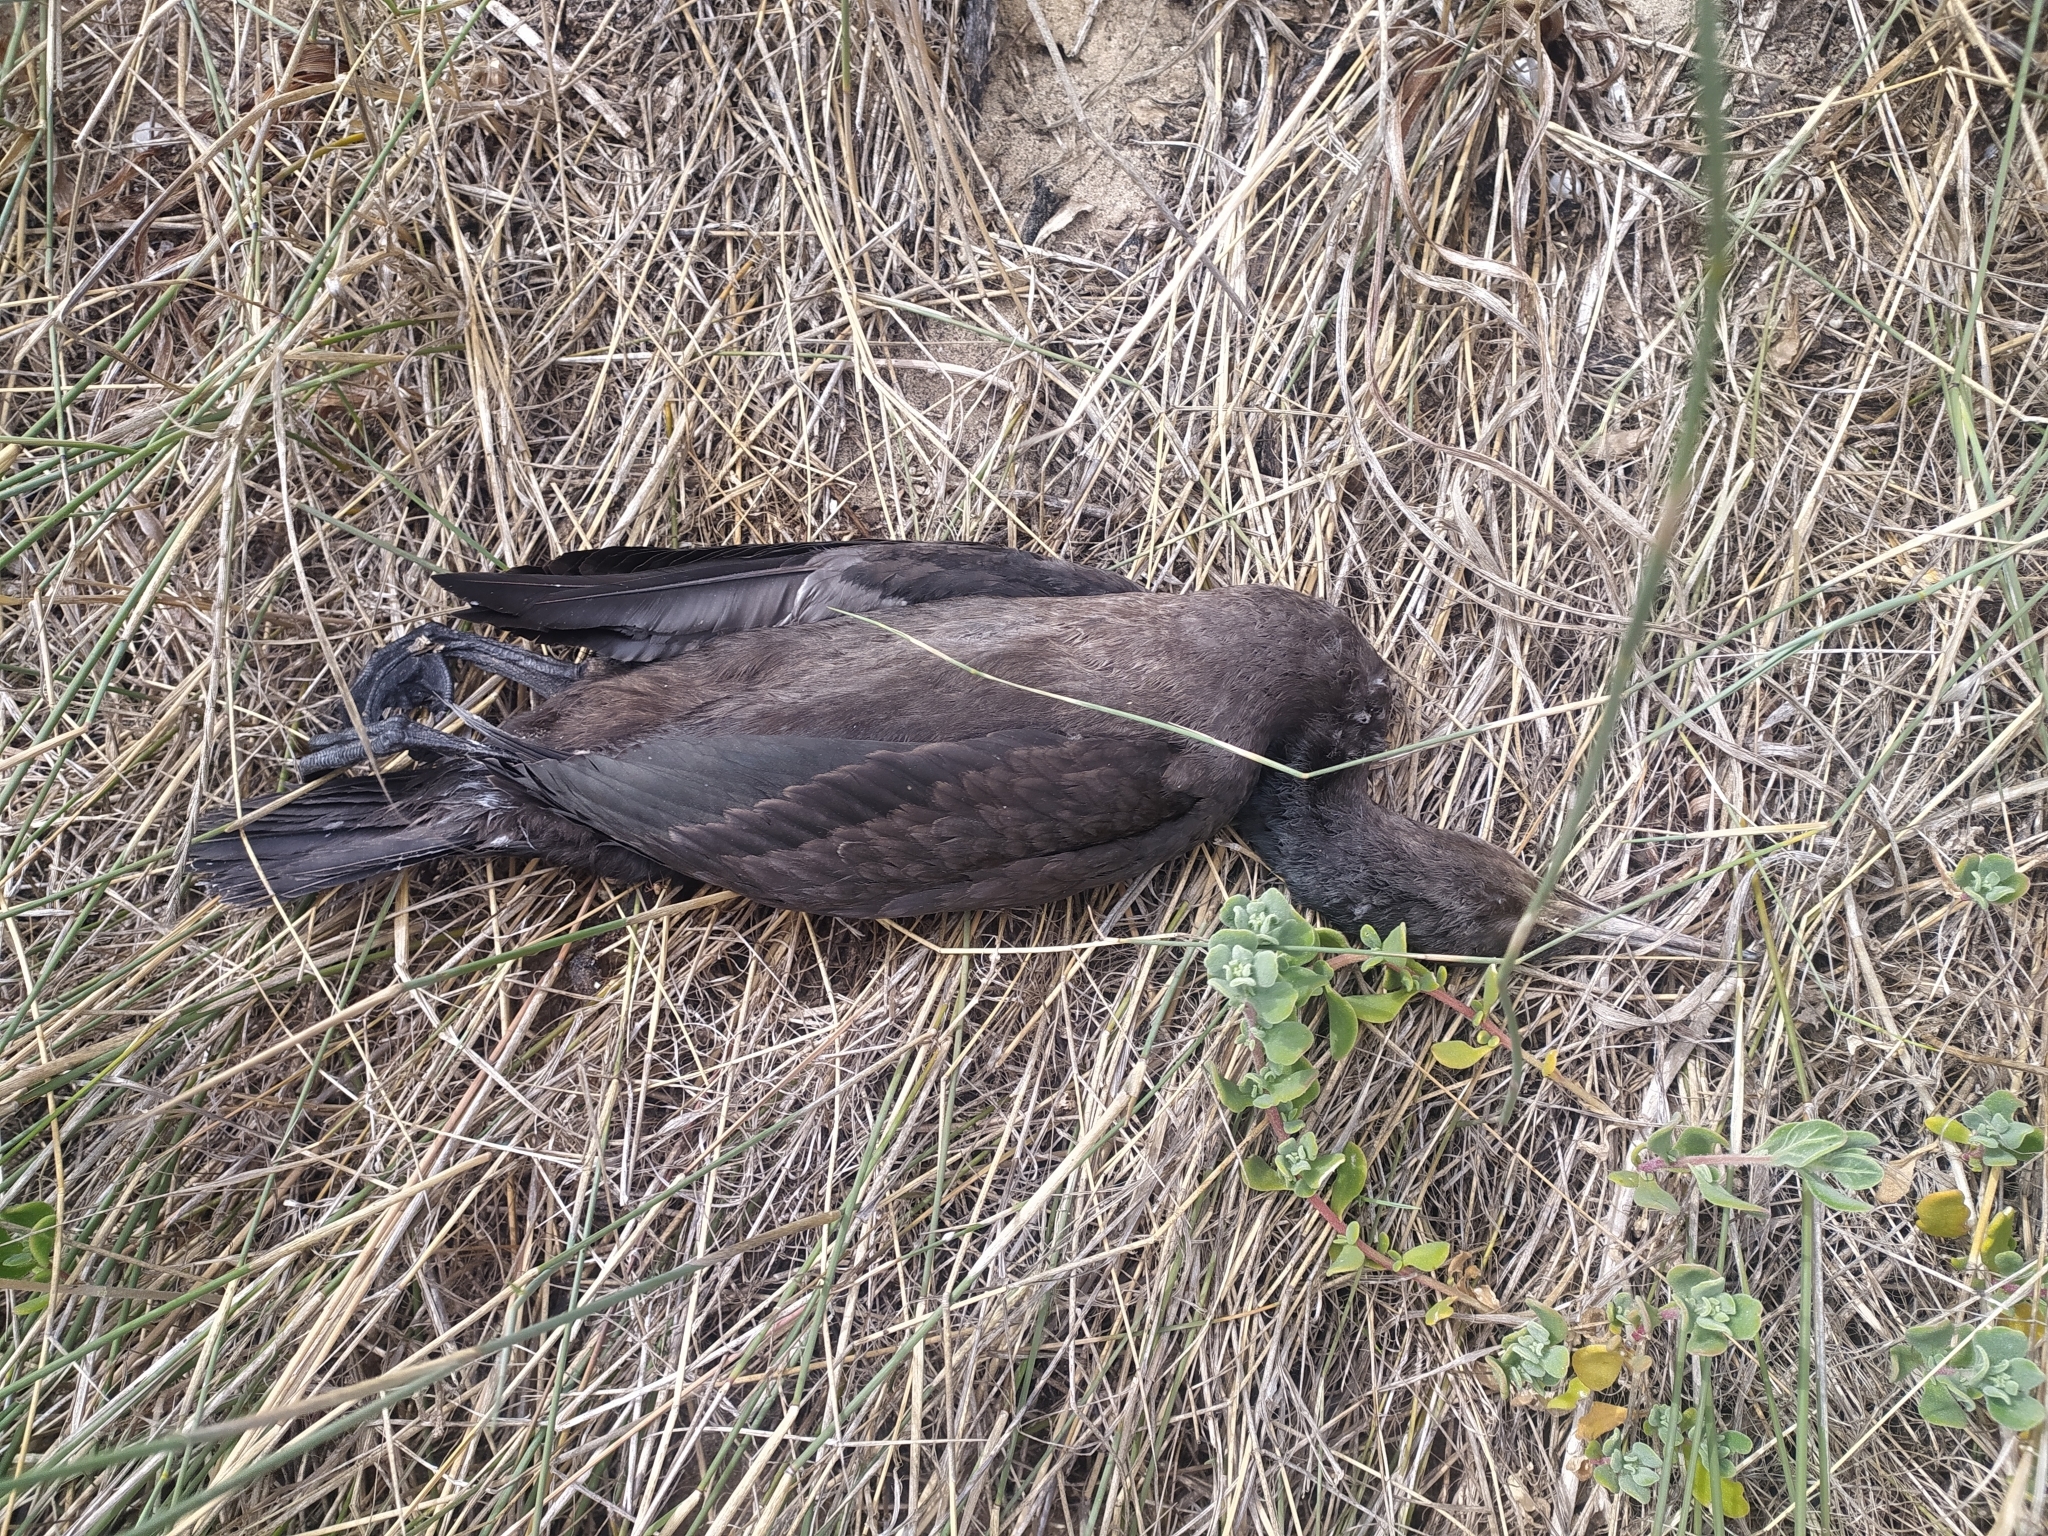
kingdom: Animalia
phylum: Chordata
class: Aves
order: Suliformes
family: Phalacrocoracidae
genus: Phalacrocorax
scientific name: Phalacrocorax capensis
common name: Cape cormorant
